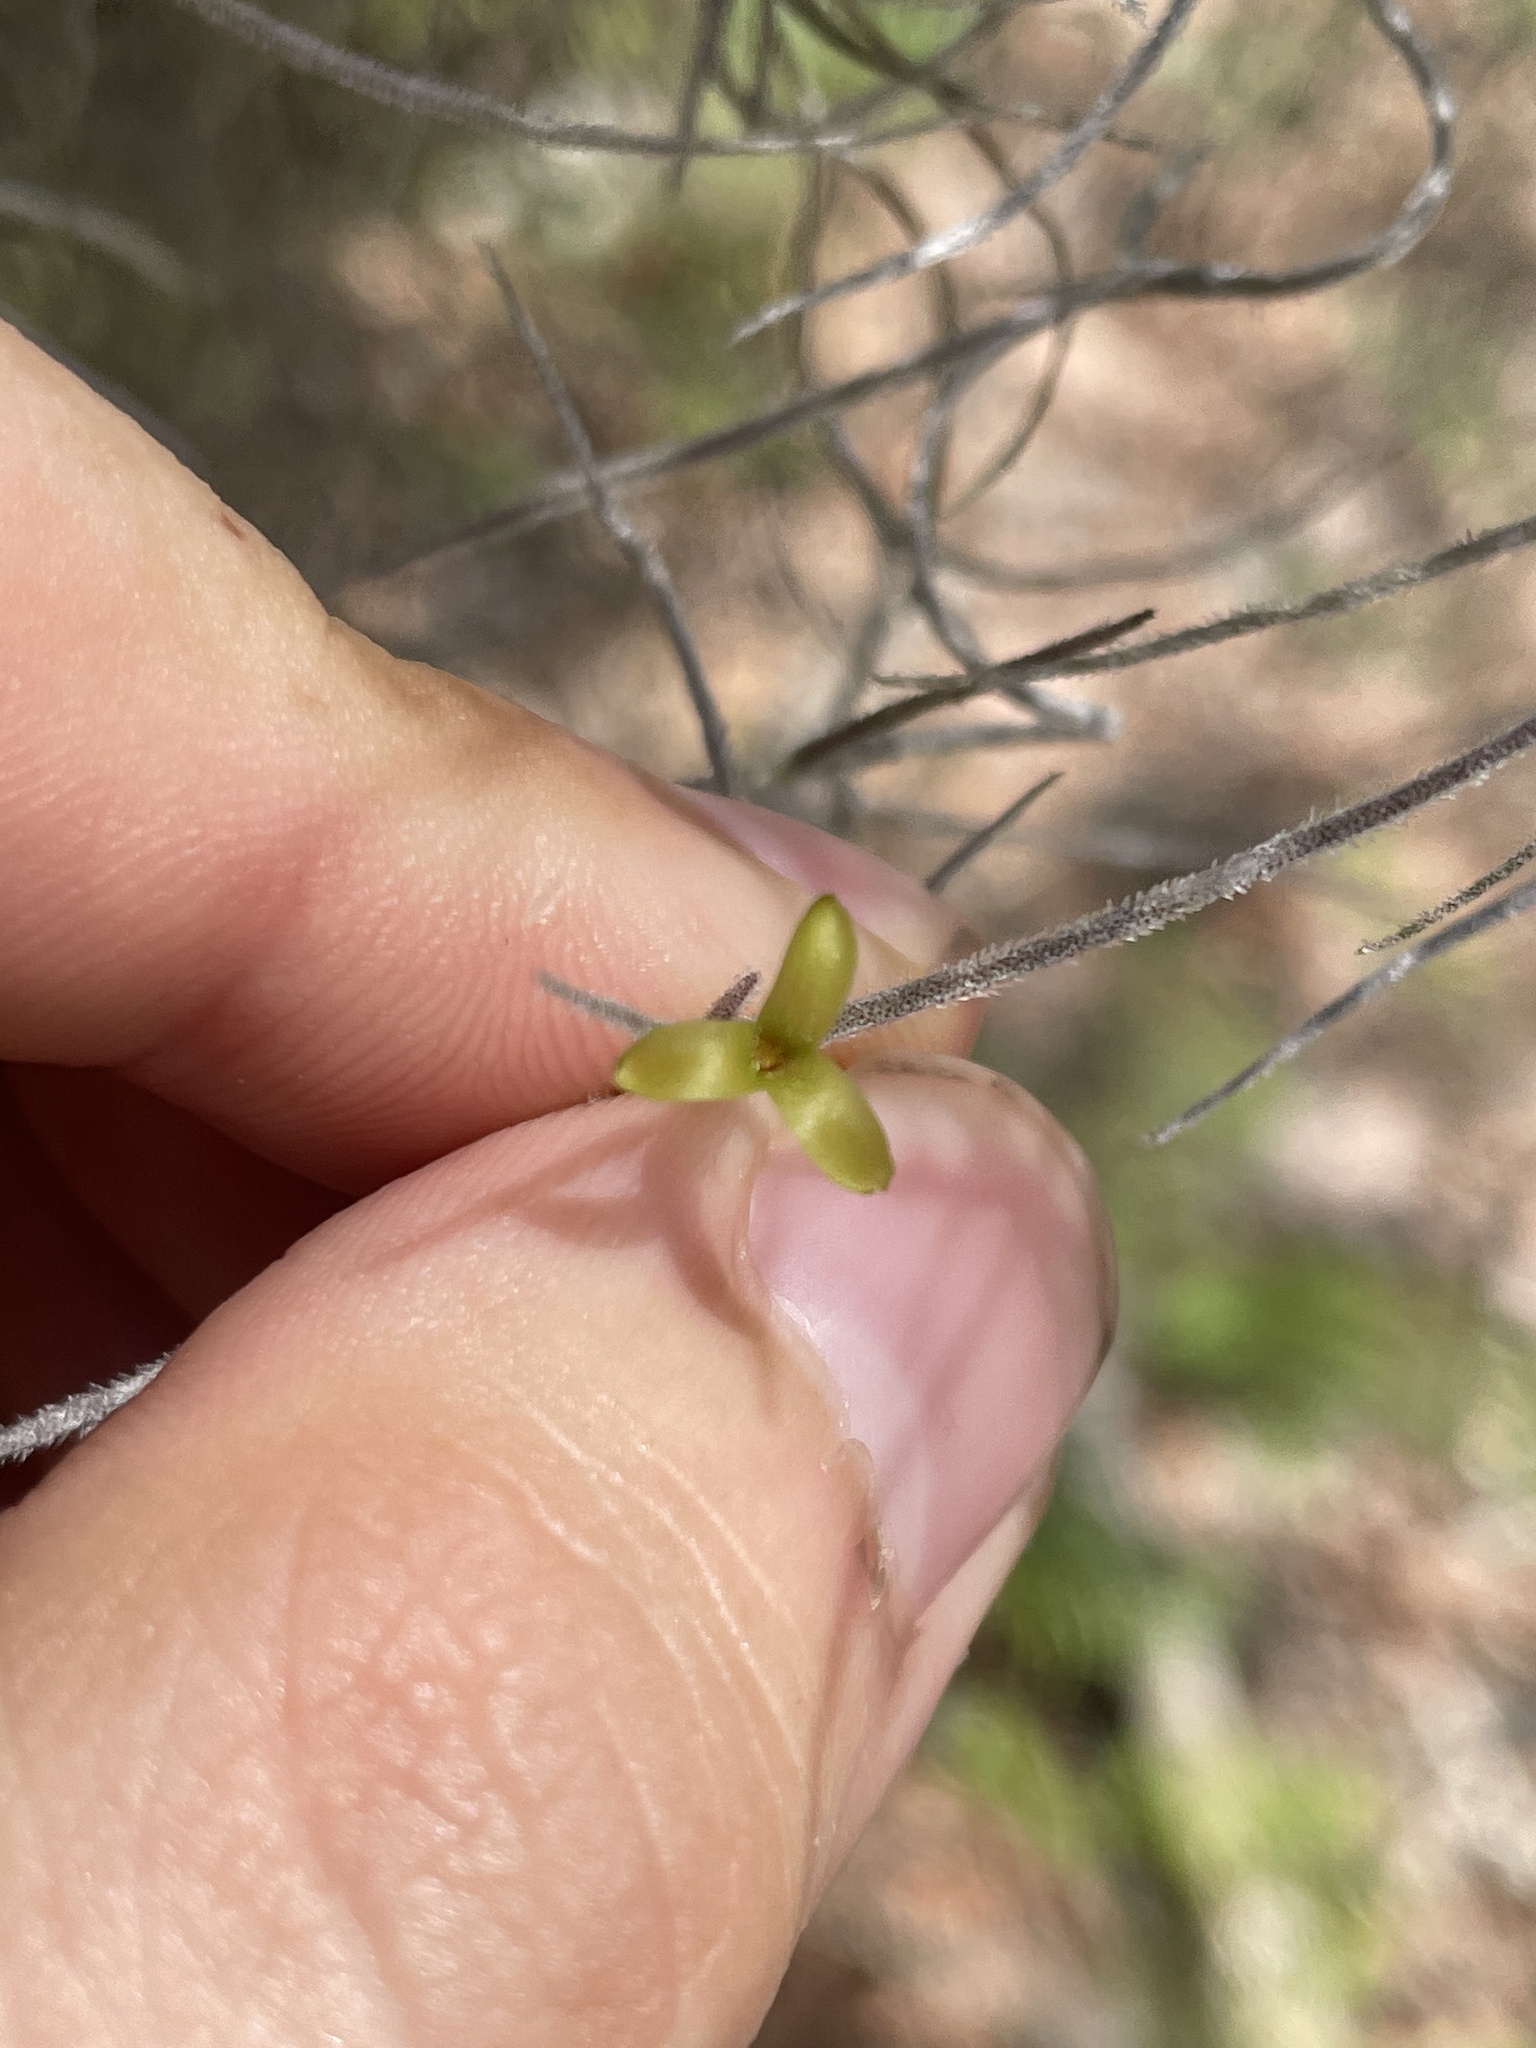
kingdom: Plantae
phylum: Tracheophyta
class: Liliopsida
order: Poales
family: Bromeliaceae
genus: Tillandsia
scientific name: Tillandsia usneoides
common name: Spanish moss
